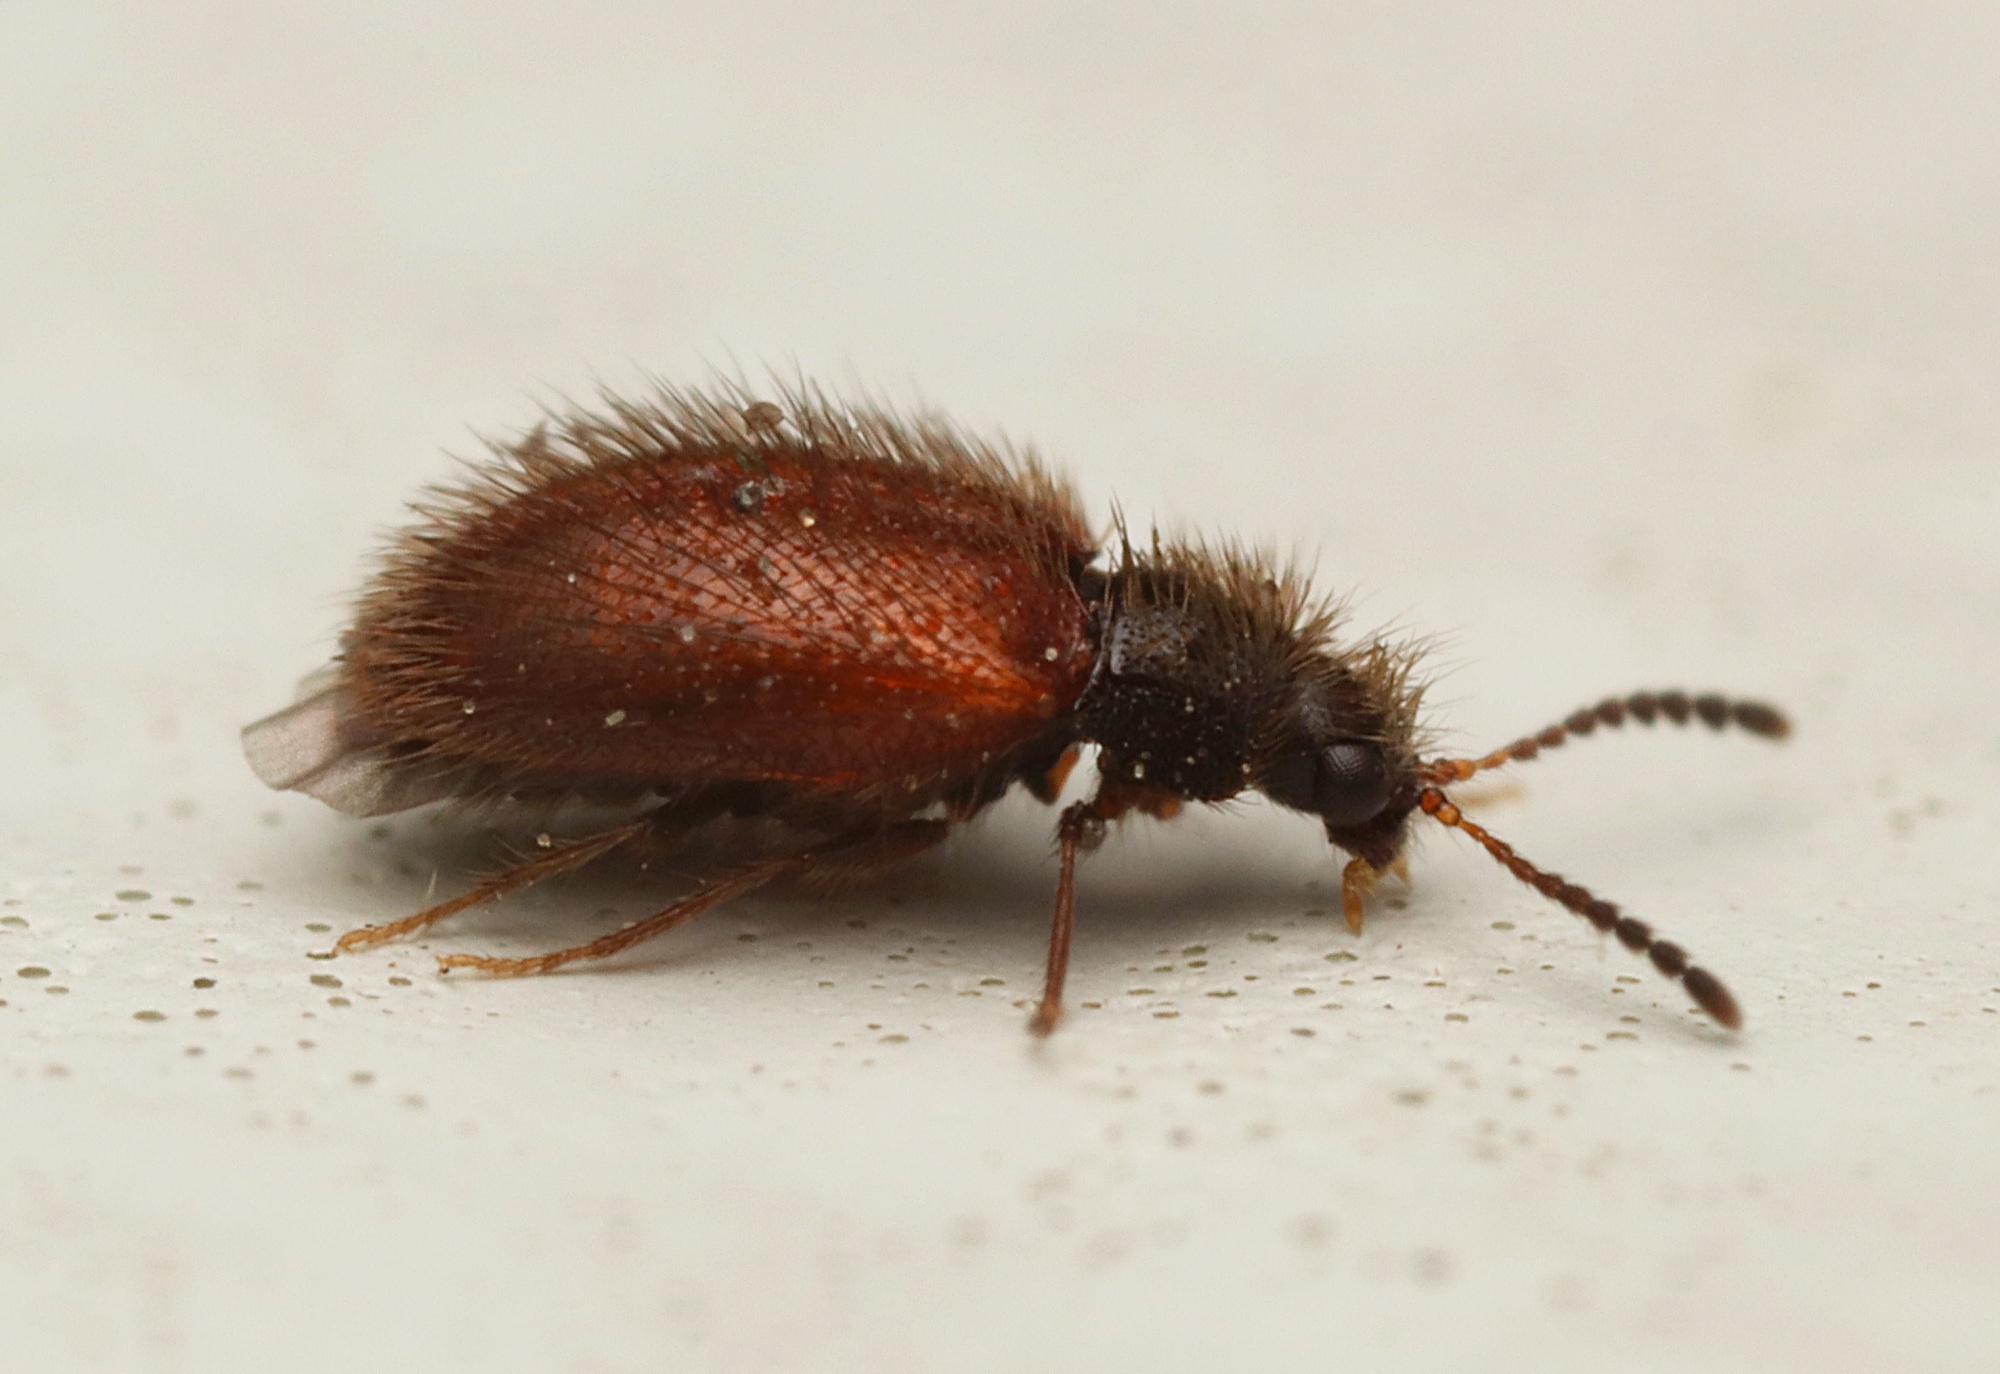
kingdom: Animalia
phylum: Arthropoda
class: Insecta
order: Coleoptera
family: Dermestidae
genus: Hexanodes
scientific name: Hexanodes
